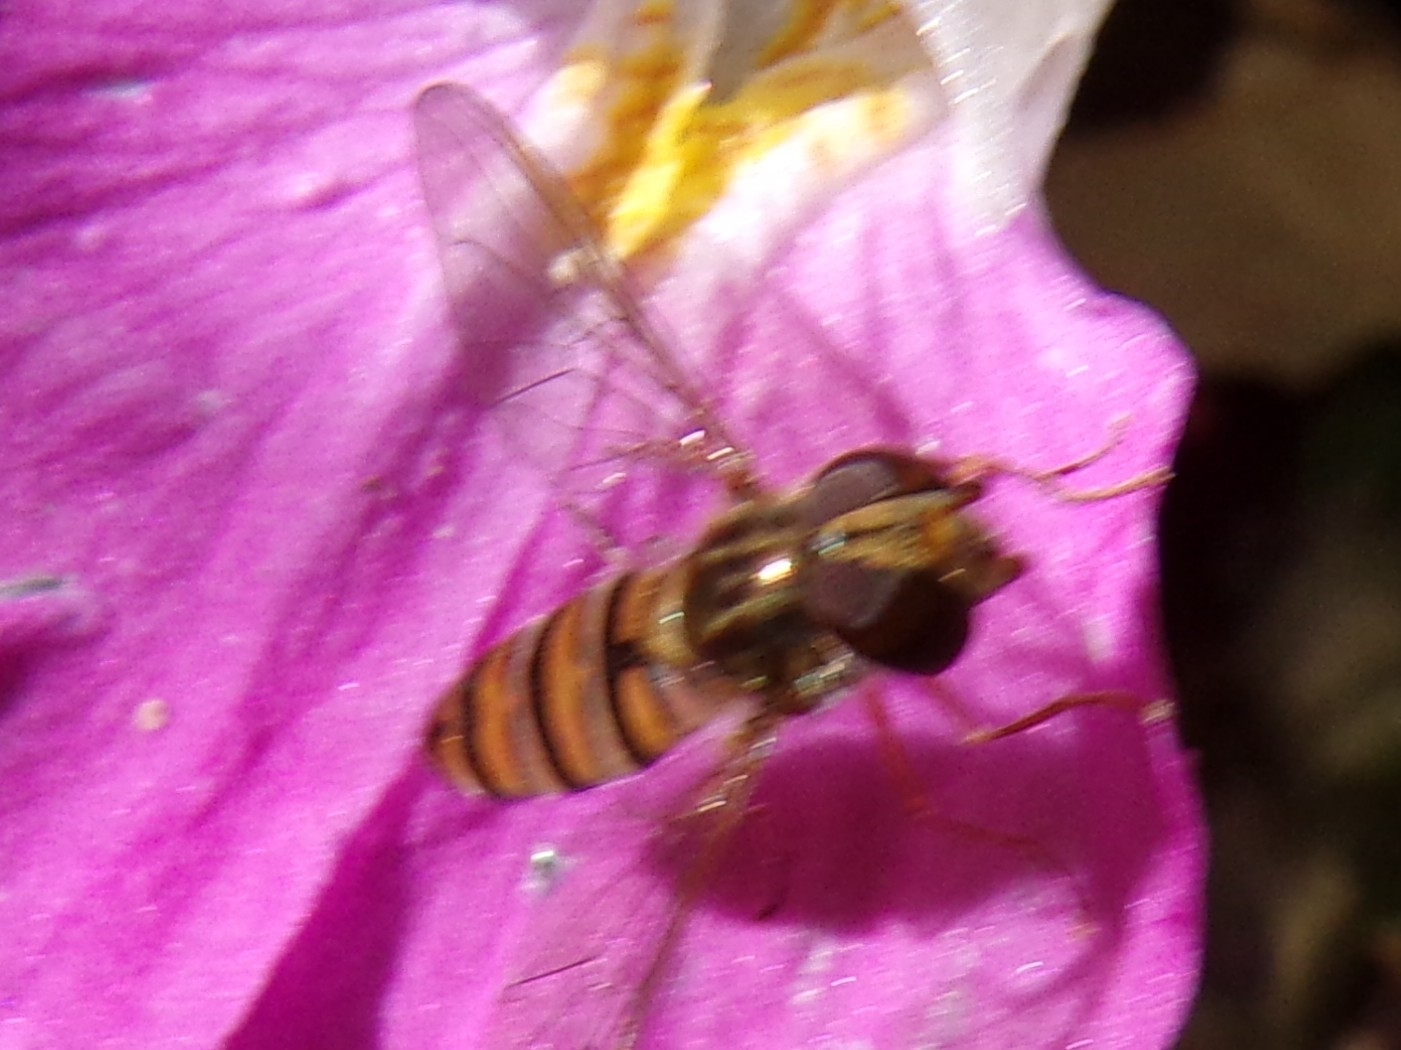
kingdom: Animalia
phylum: Arthropoda
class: Insecta
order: Diptera
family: Syrphidae
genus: Episyrphus
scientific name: Episyrphus balteatus
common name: Marmalade hoverfly
